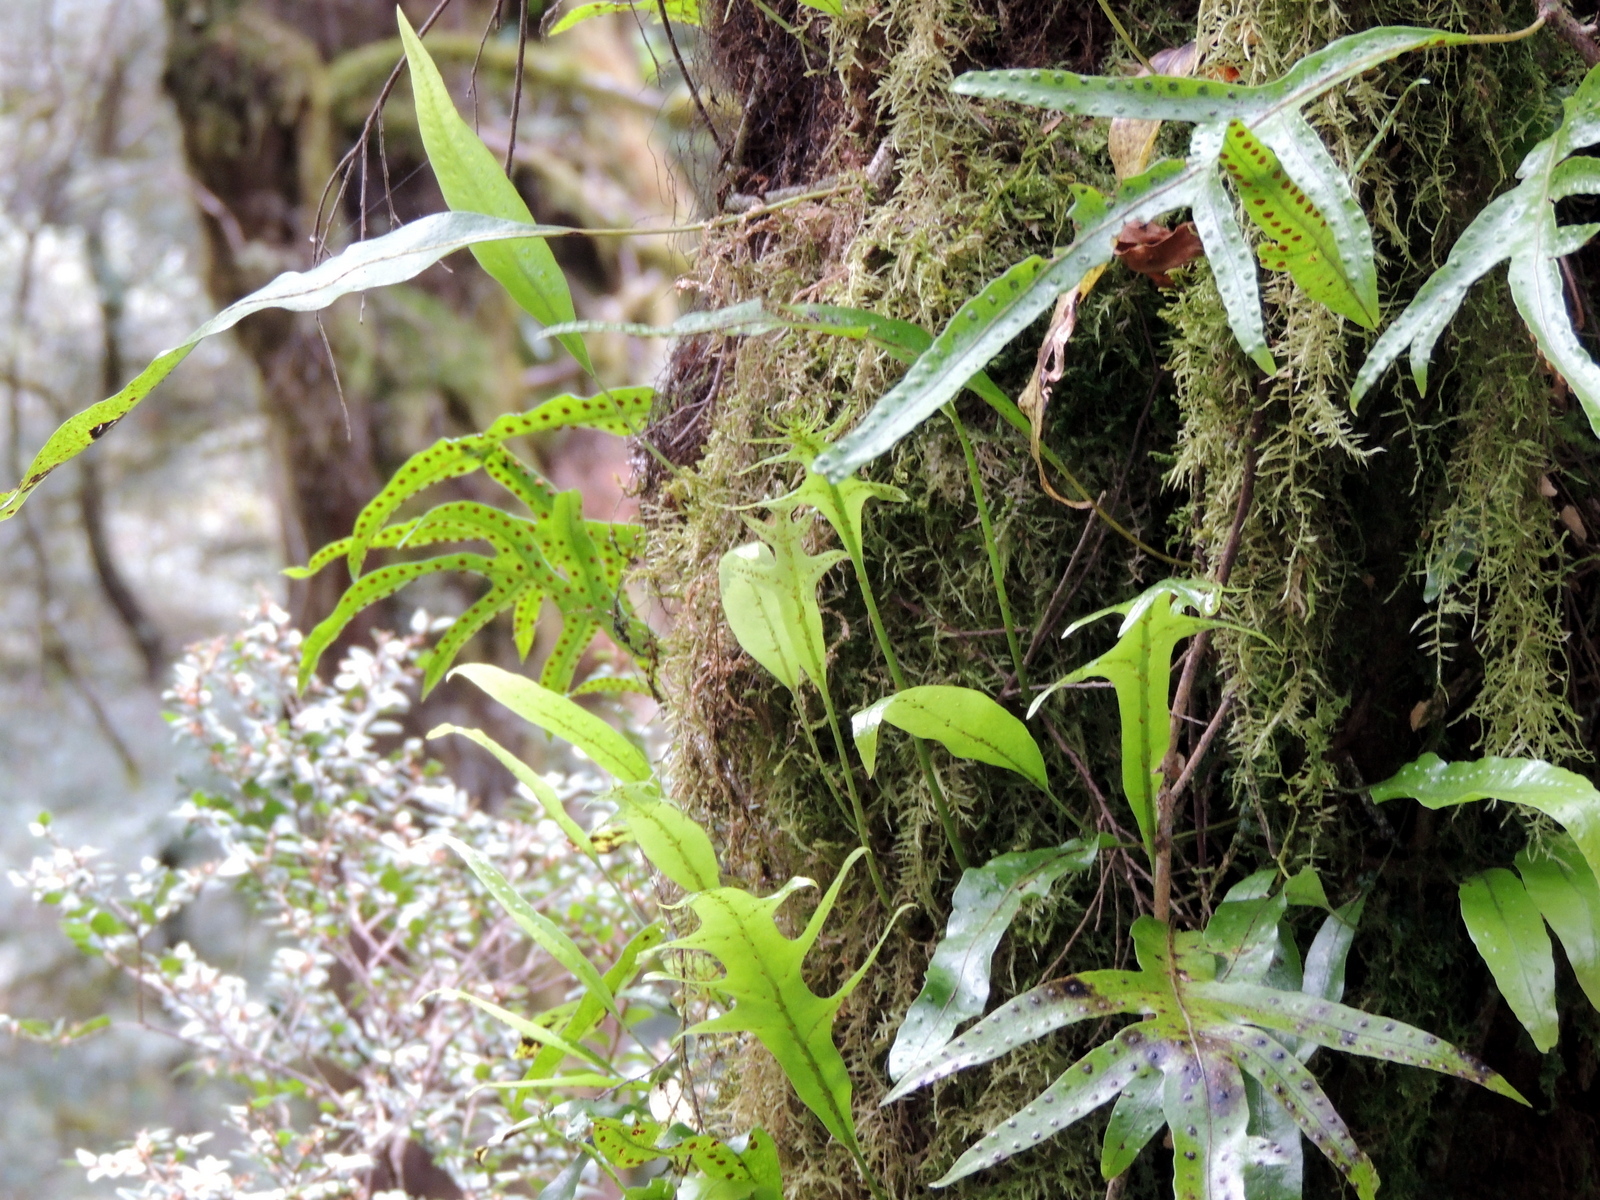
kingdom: Plantae
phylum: Tracheophyta
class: Polypodiopsida
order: Polypodiales
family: Polypodiaceae
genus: Lecanopteris
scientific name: Lecanopteris pustulata
